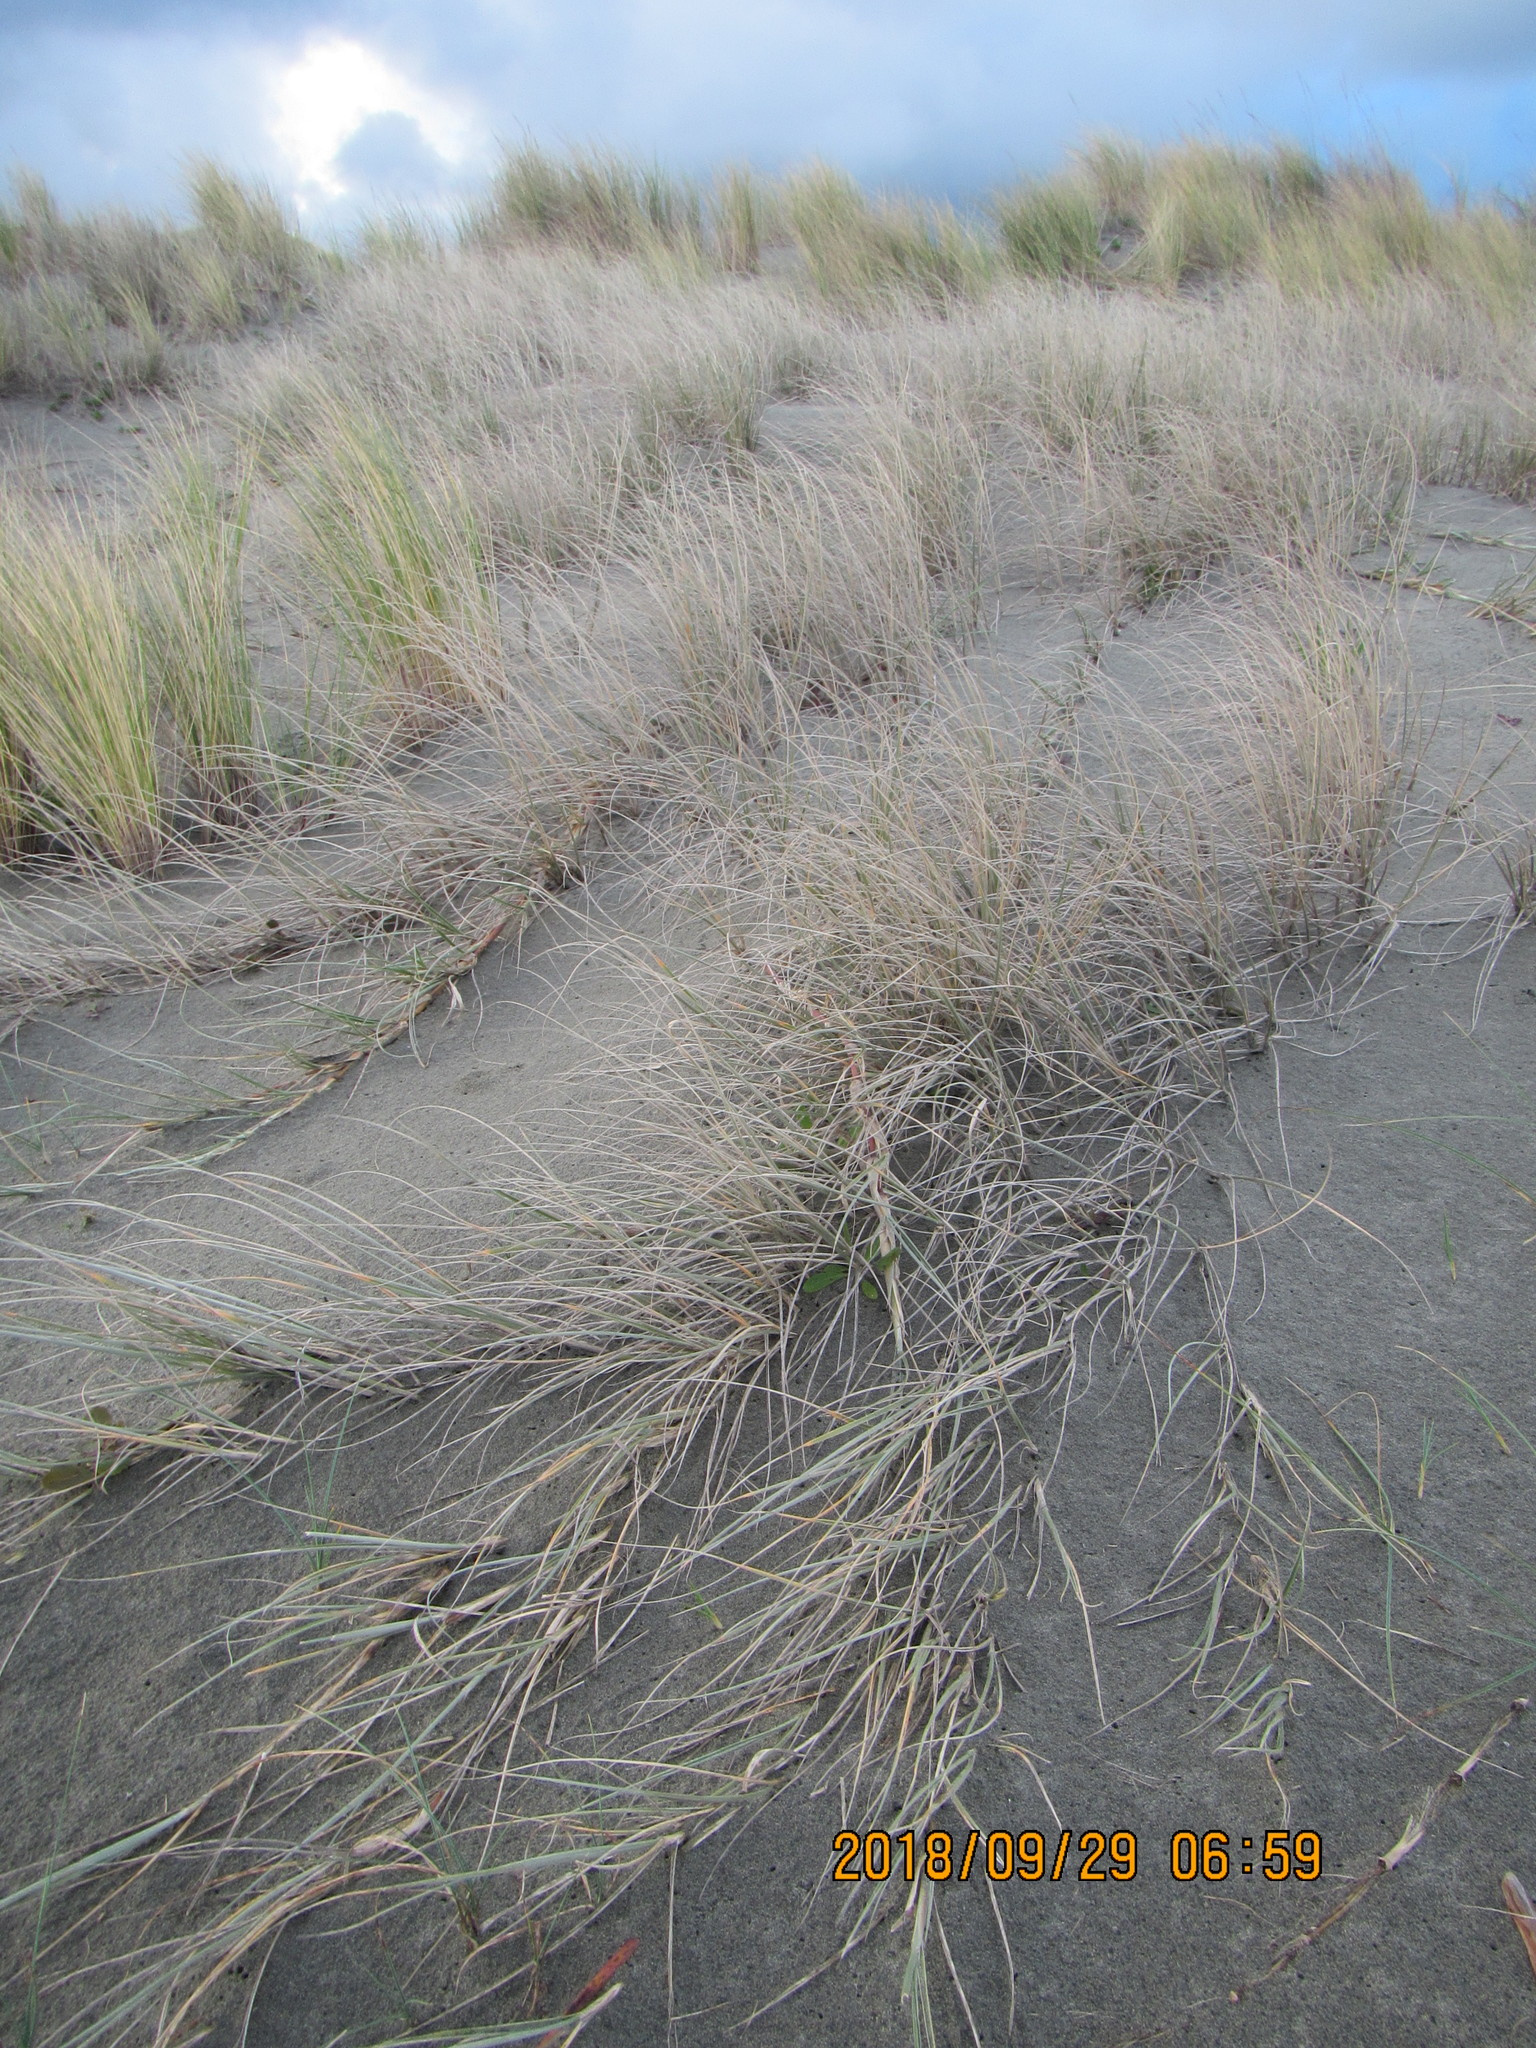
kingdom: Plantae
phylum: Tracheophyta
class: Liliopsida
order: Poales
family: Poaceae
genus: Spinifex
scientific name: Spinifex sericeus
